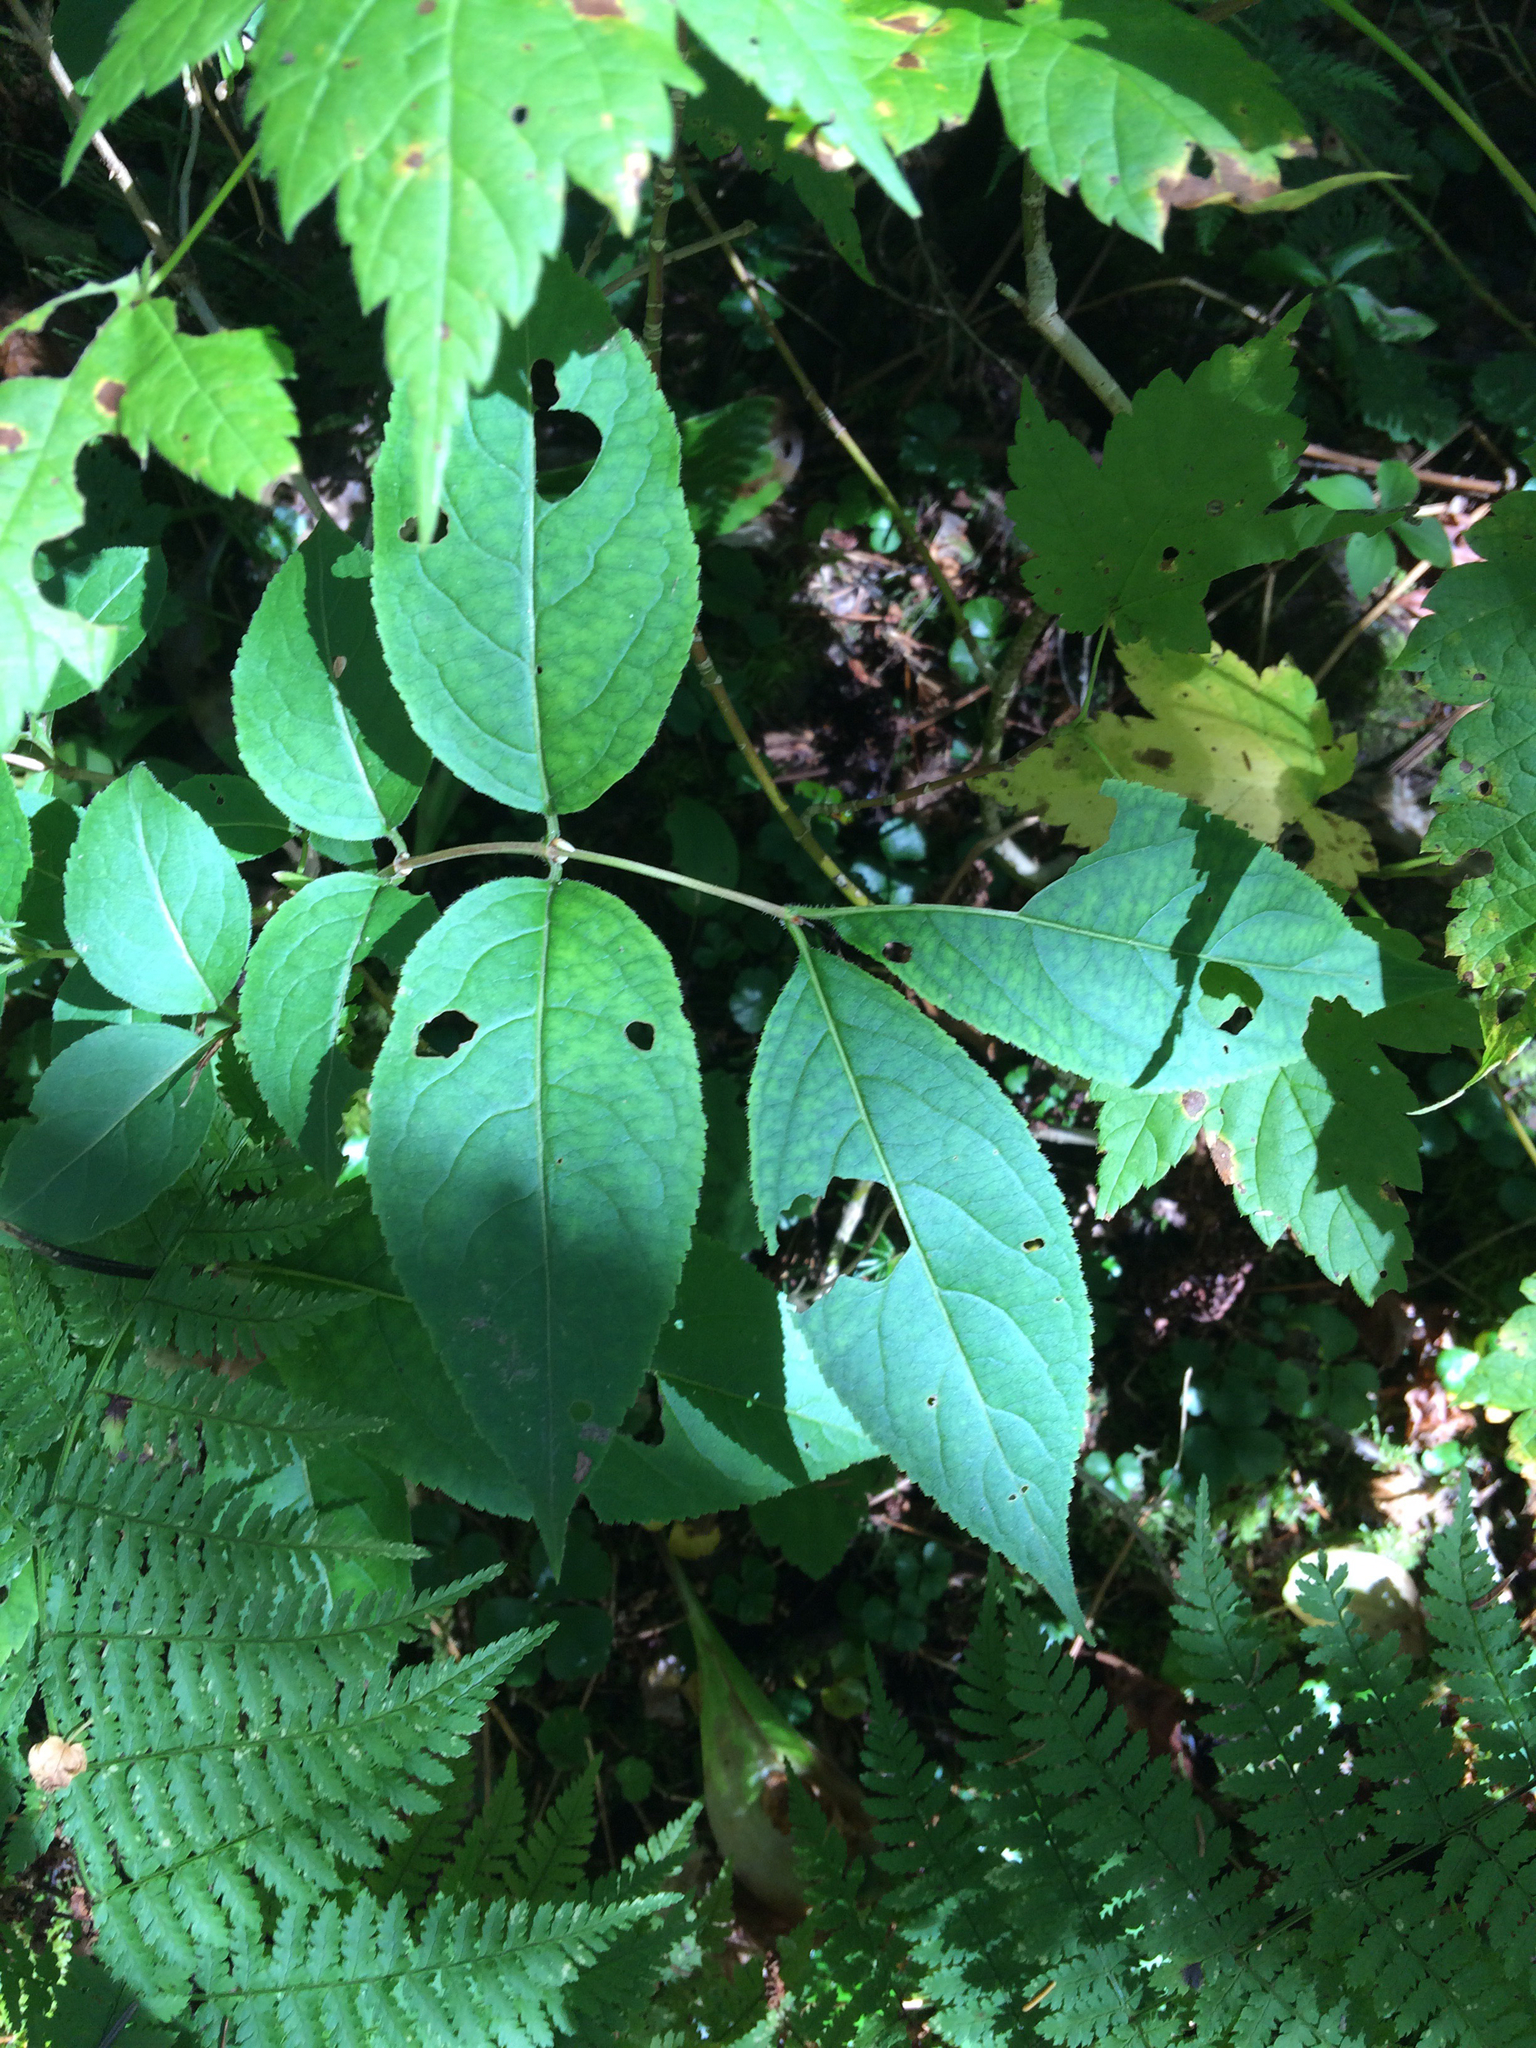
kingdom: Plantae
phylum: Tracheophyta
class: Magnoliopsida
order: Dipsacales
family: Caprifoliaceae
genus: Diervilla
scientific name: Diervilla lonicera
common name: Bush-honeysuckle
